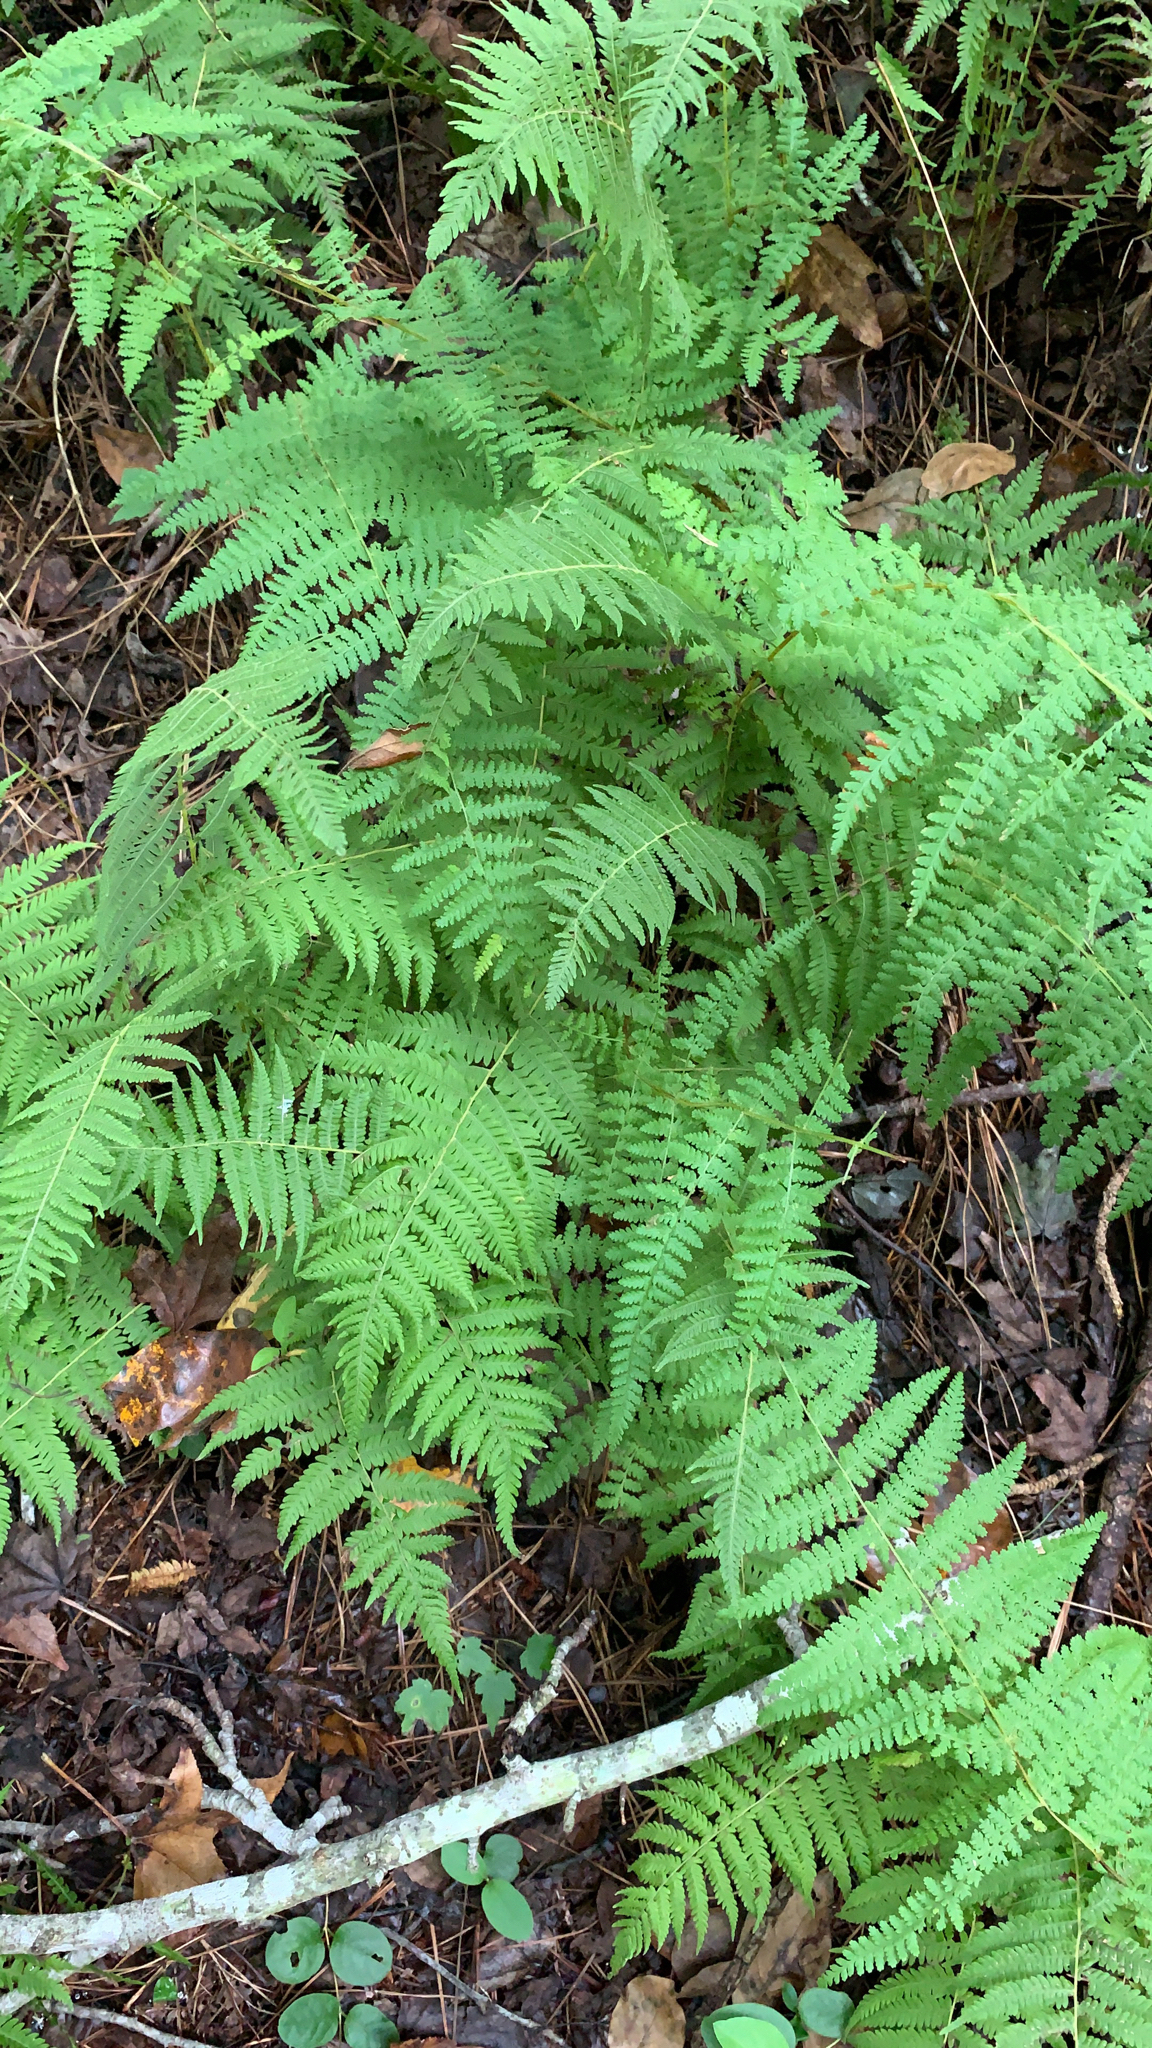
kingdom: Plantae
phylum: Tracheophyta
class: Polypodiopsida
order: Polypodiales
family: Thelypteridaceae
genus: Amauropelta
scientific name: Amauropelta noveboracensis
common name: New york fern
